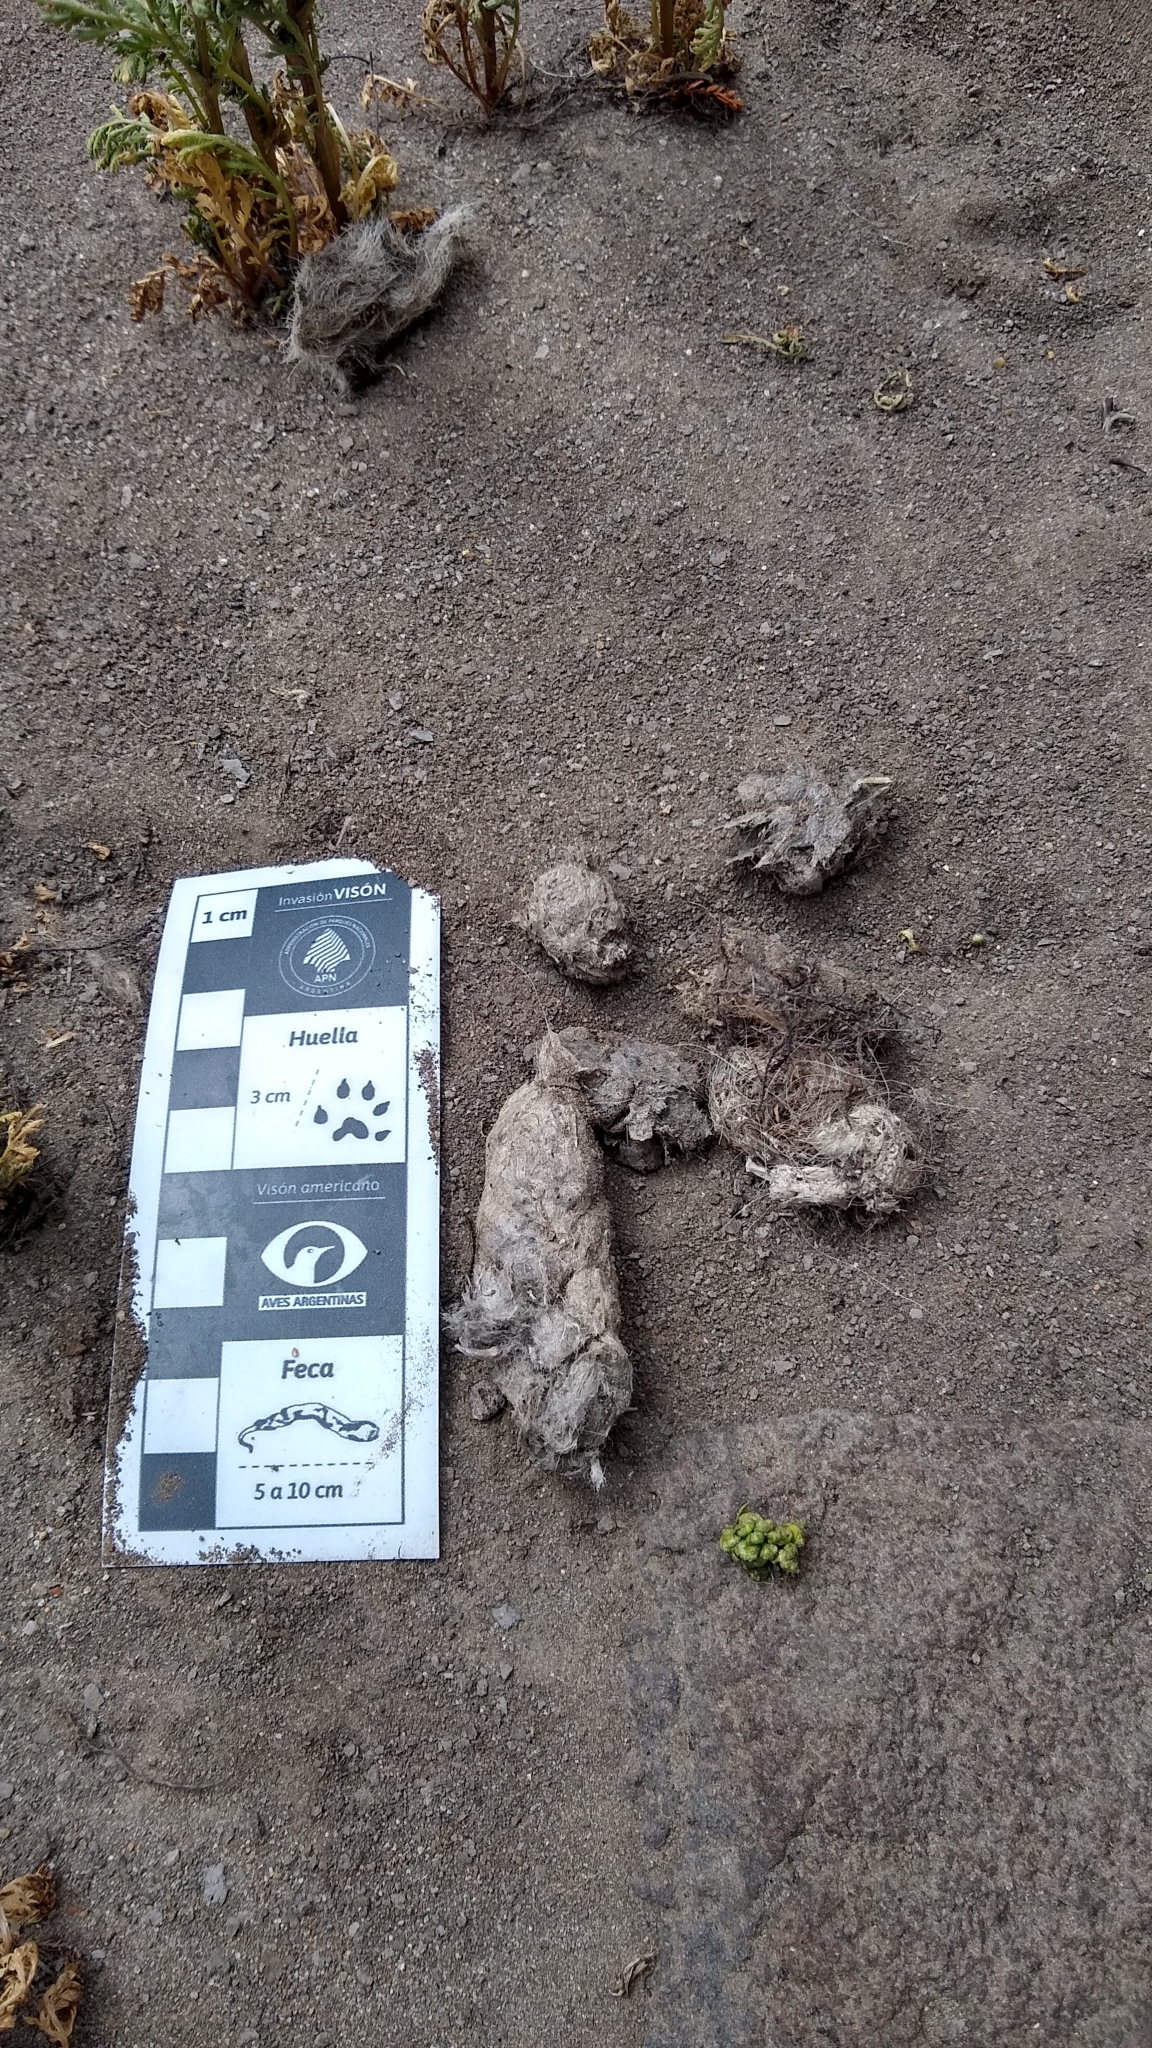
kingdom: Animalia
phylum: Chordata
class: Mammalia
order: Carnivora
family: Canidae
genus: Lycalopex
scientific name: Lycalopex culpaeus
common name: Culpeo
